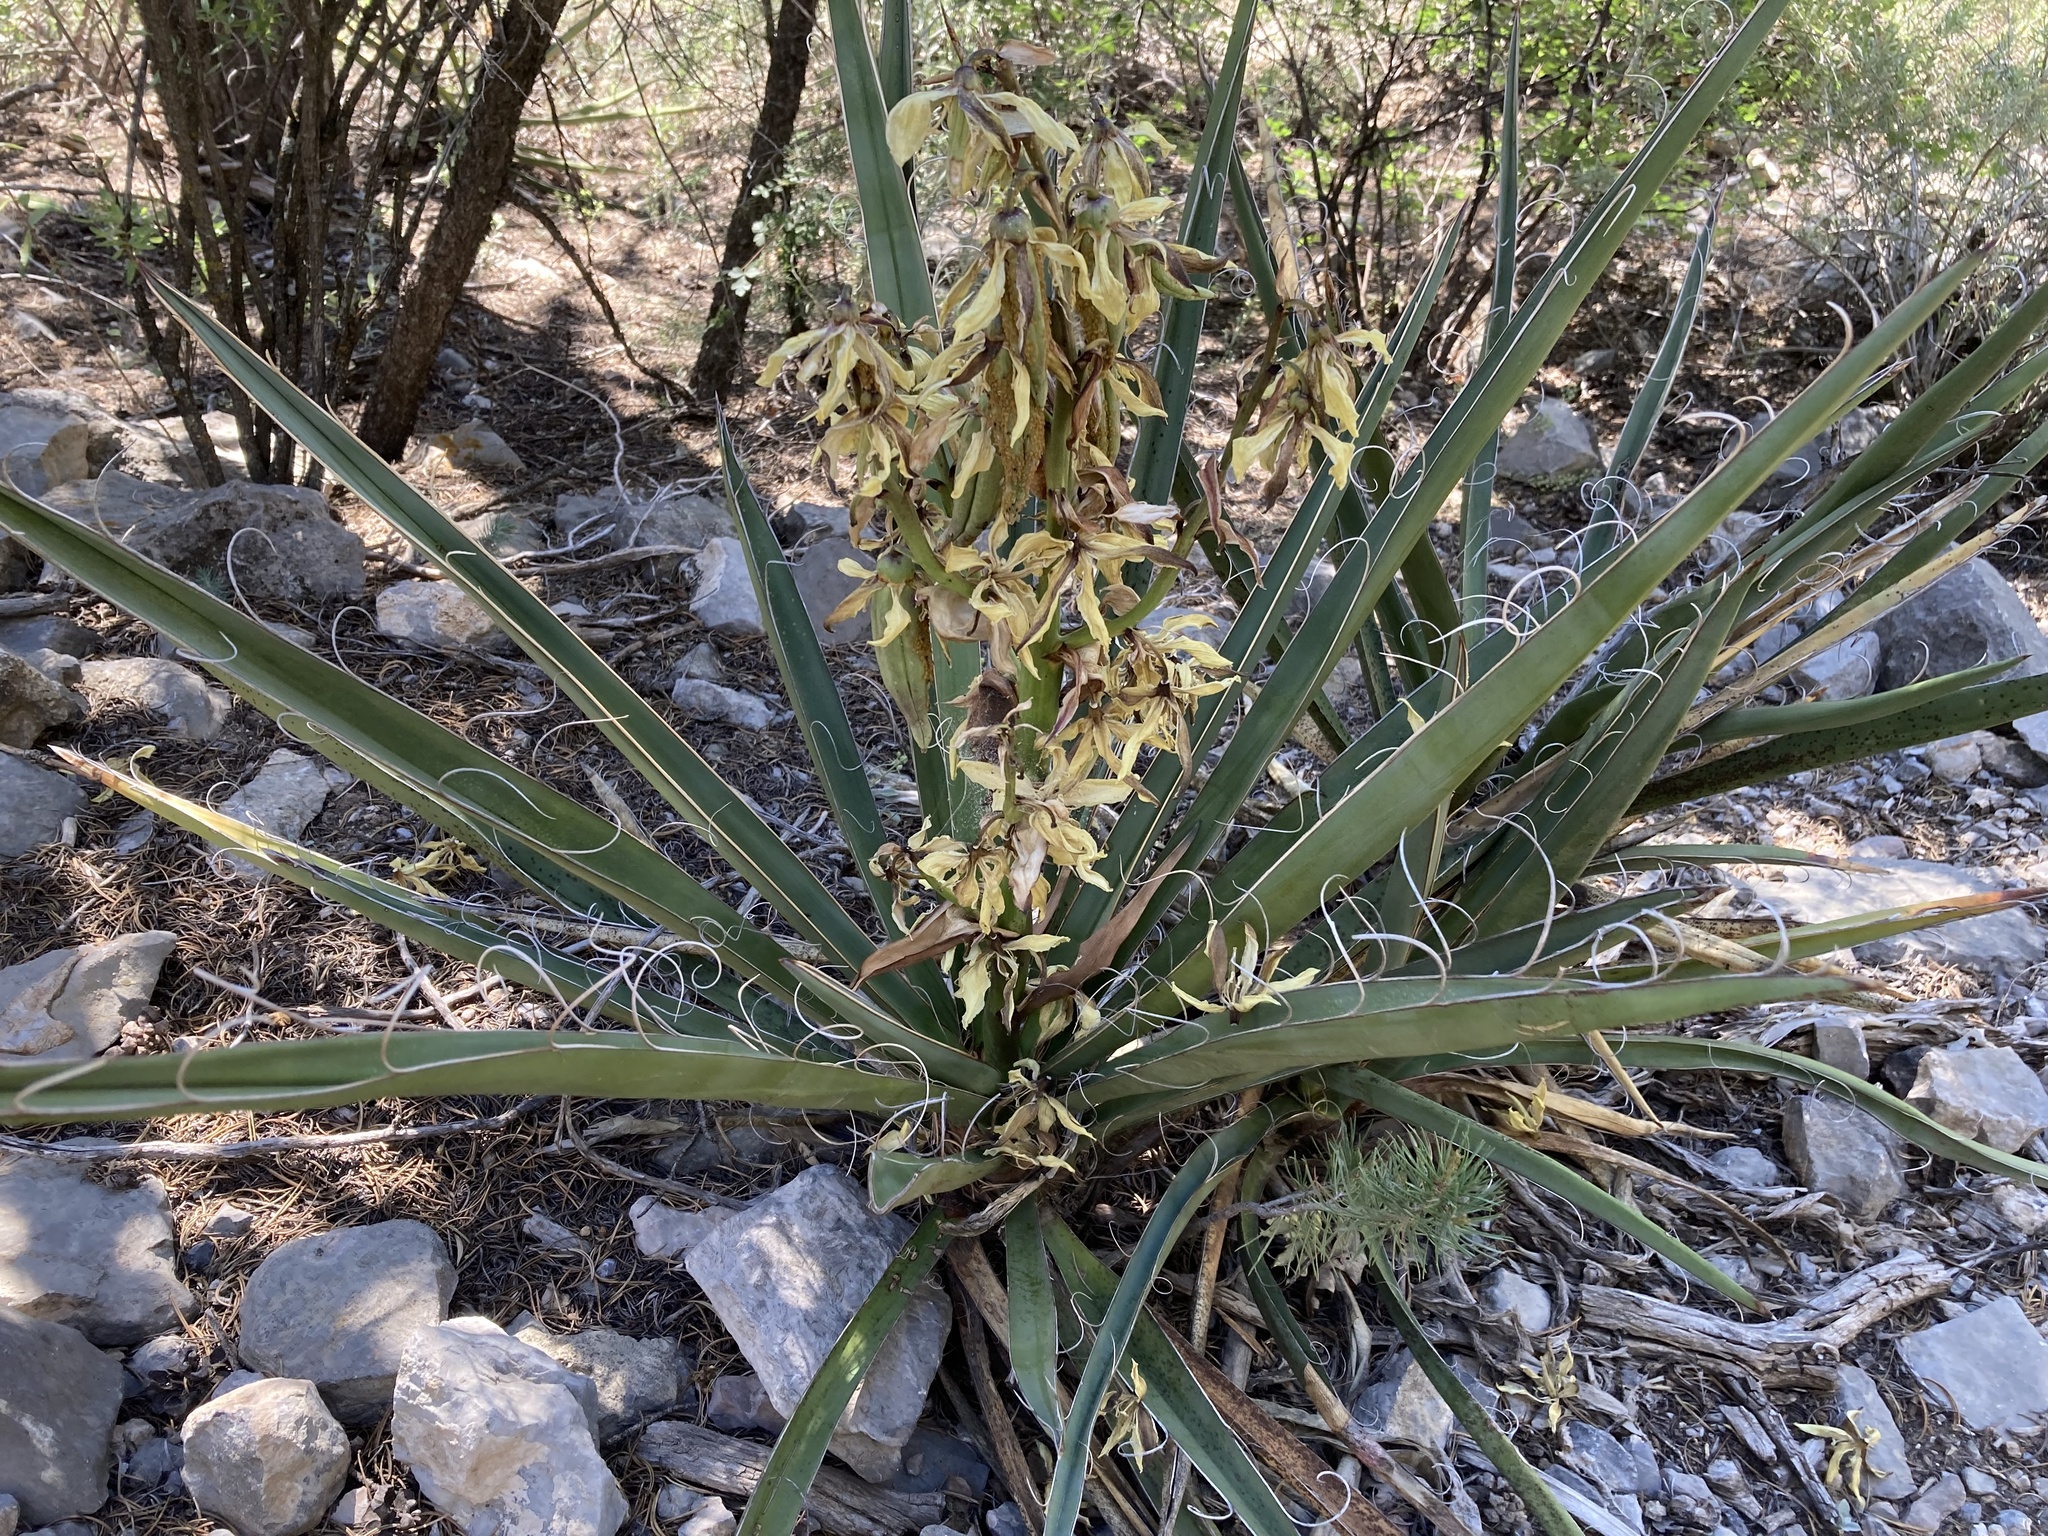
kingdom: Plantae
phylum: Tracheophyta
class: Liliopsida
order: Asparagales
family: Asparagaceae
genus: Yucca
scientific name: Yucca baccata
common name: Banana yucca
